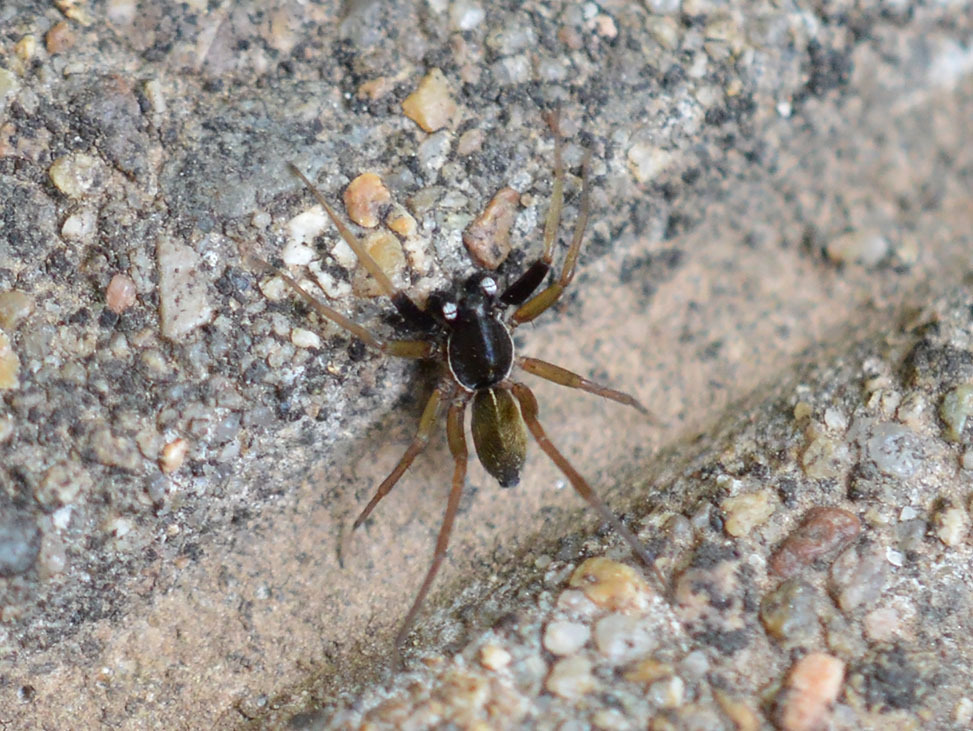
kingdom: Animalia
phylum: Arthropoda
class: Arachnida
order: Araneae
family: Lycosidae
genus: Aulonia
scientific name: Aulonia albimana
